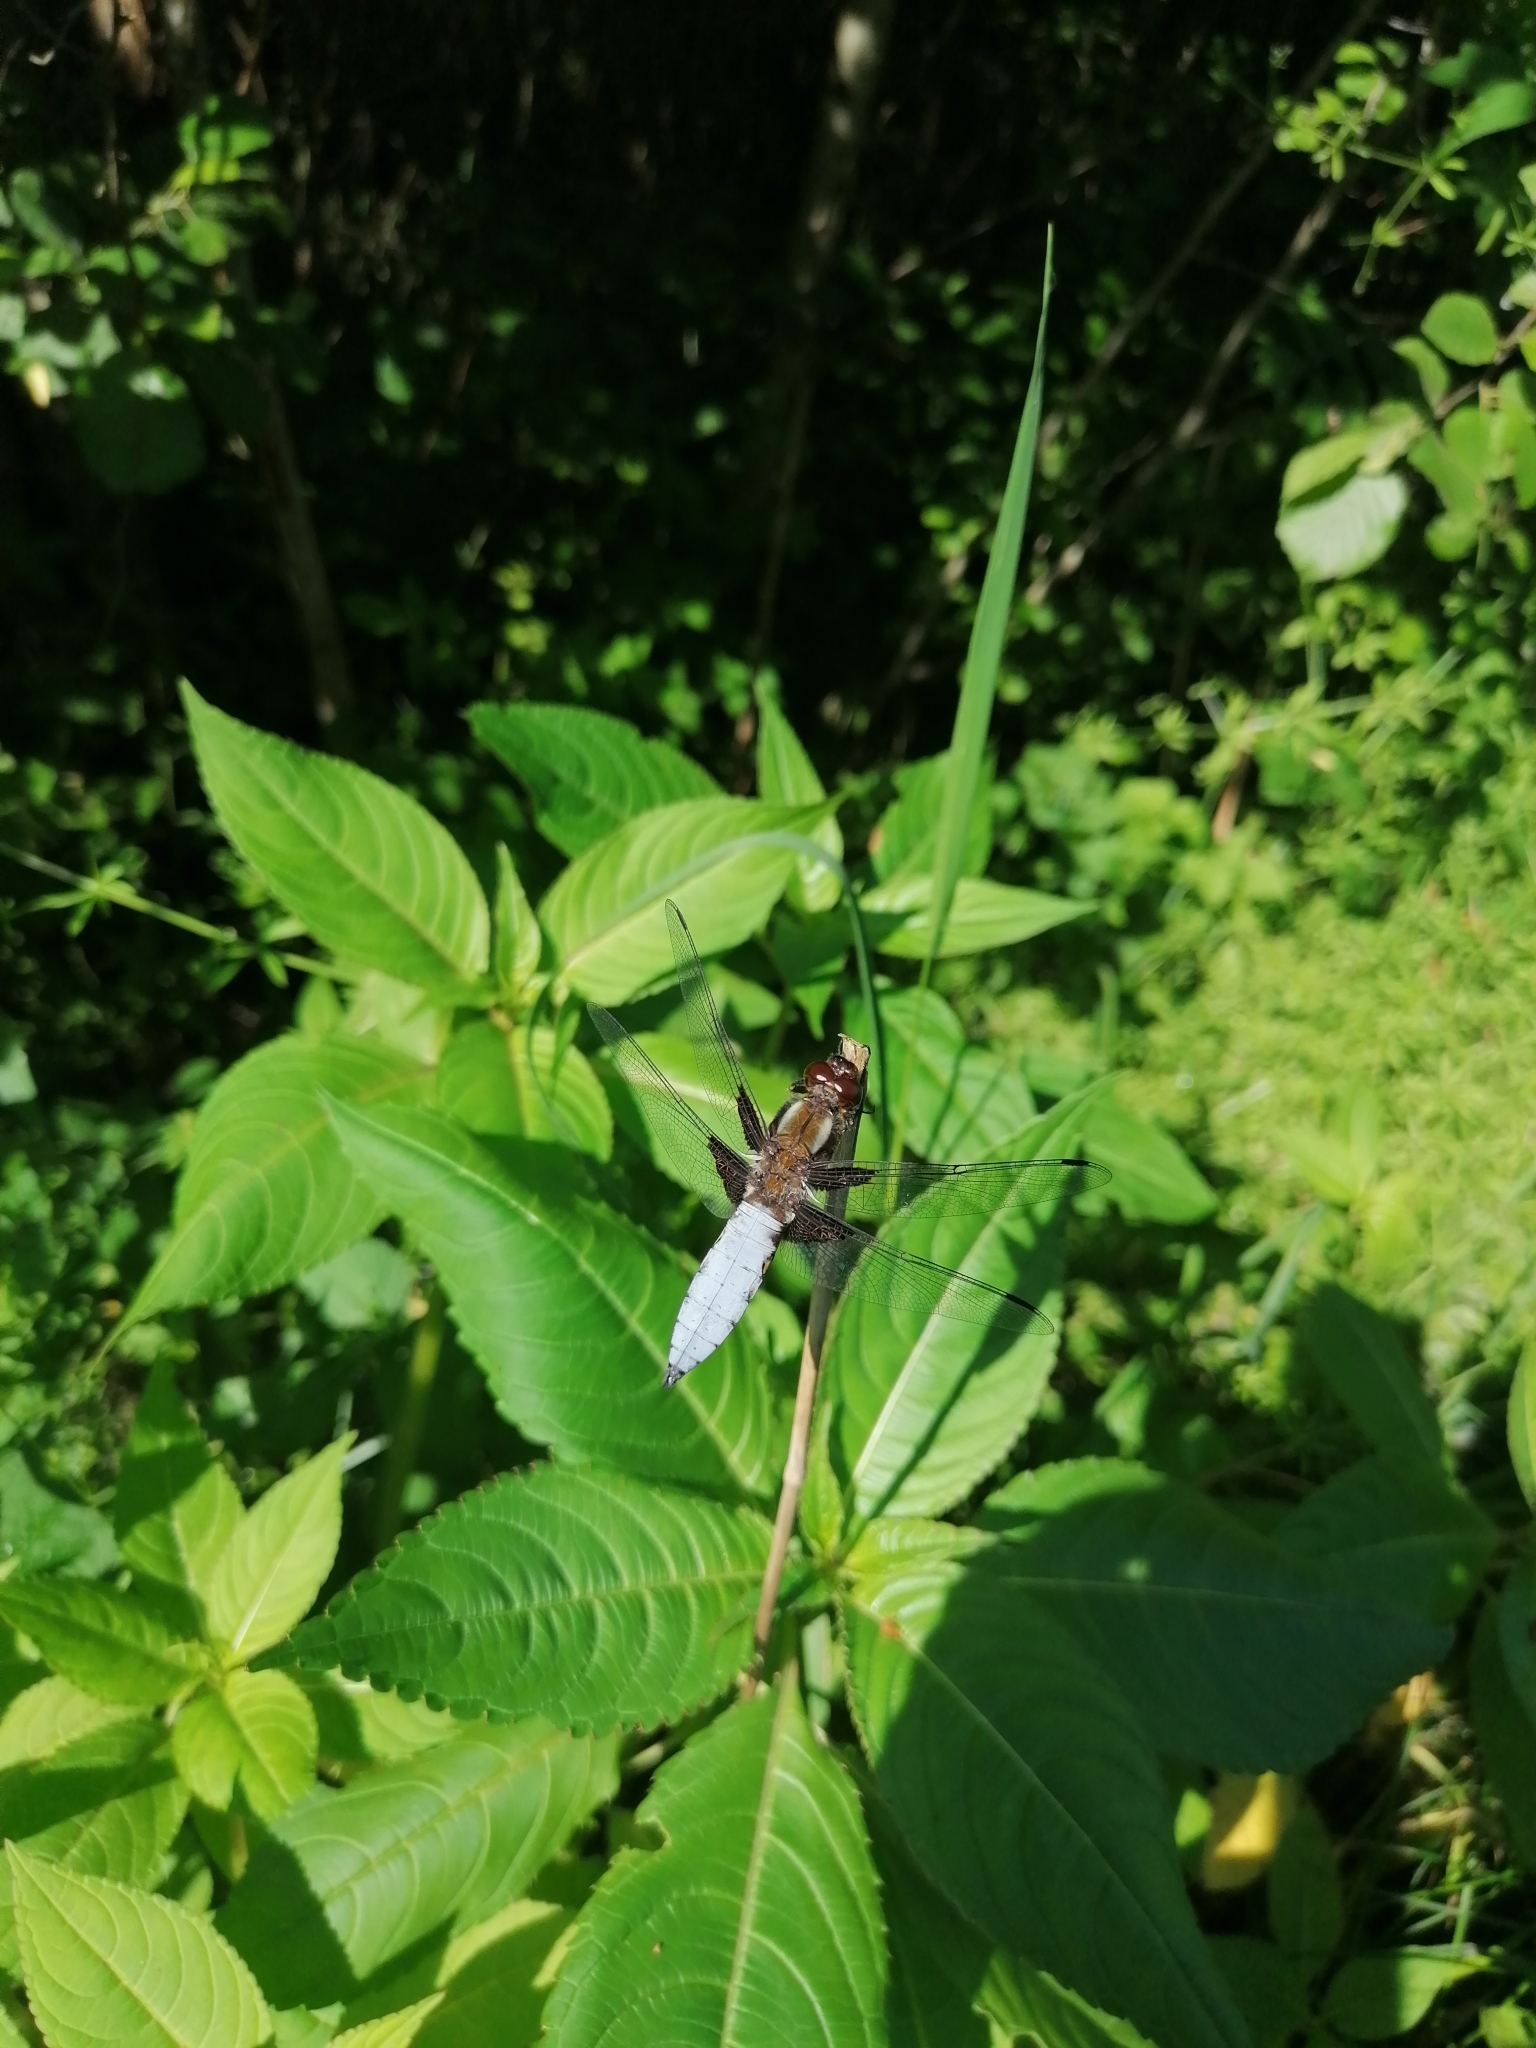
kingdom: Animalia
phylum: Arthropoda
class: Insecta
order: Odonata
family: Libellulidae
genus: Libellula
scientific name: Libellula depressa
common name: Broad-bodied chaser
